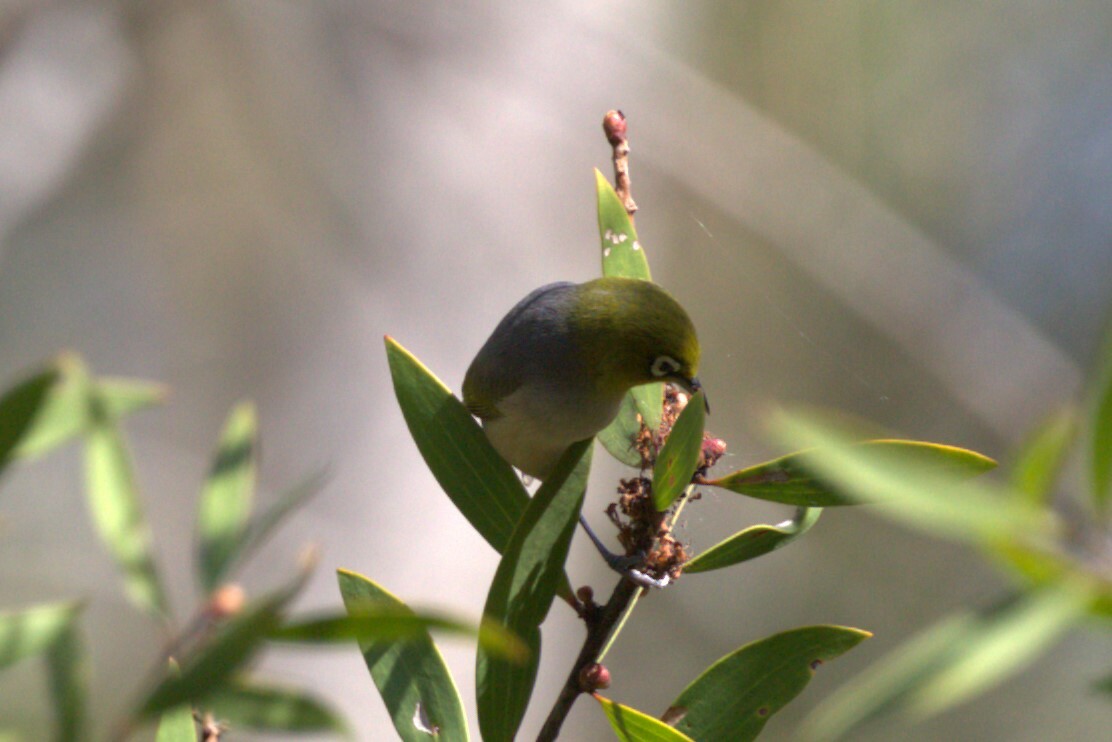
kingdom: Animalia
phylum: Chordata
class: Aves
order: Passeriformes
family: Zosteropidae
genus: Zosterops
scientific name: Zosterops lateralis
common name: Silvereye
